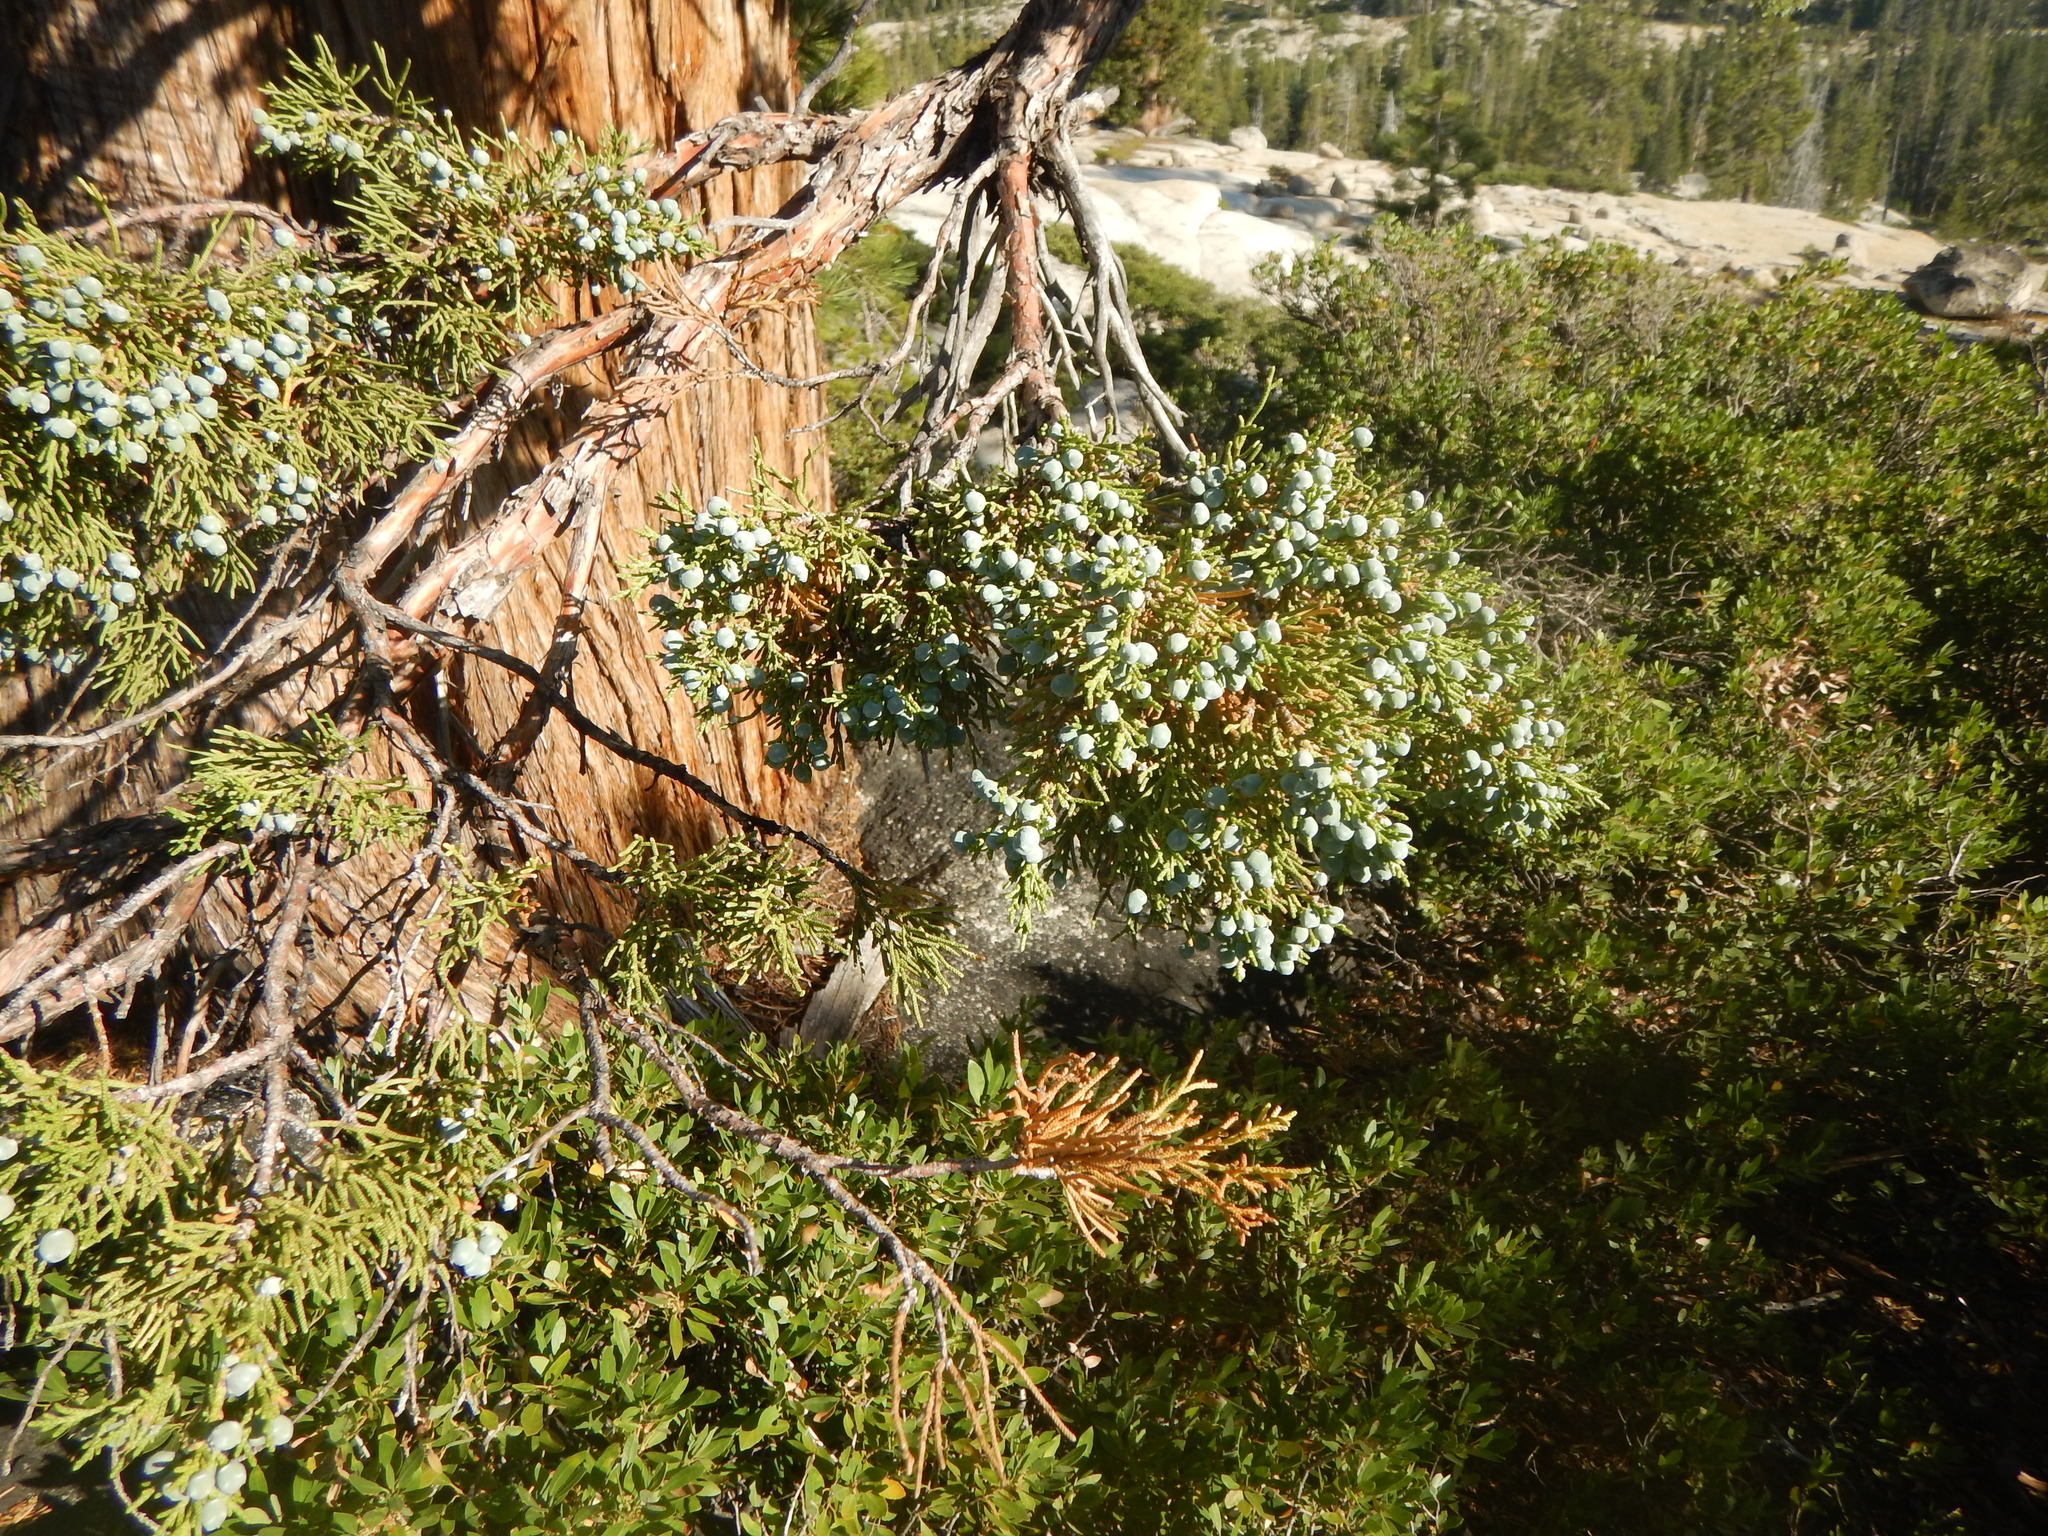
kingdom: Plantae
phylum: Tracheophyta
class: Pinopsida
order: Pinales
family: Cupressaceae
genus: Juniperus
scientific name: Juniperus occidentalis
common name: Western juniper
